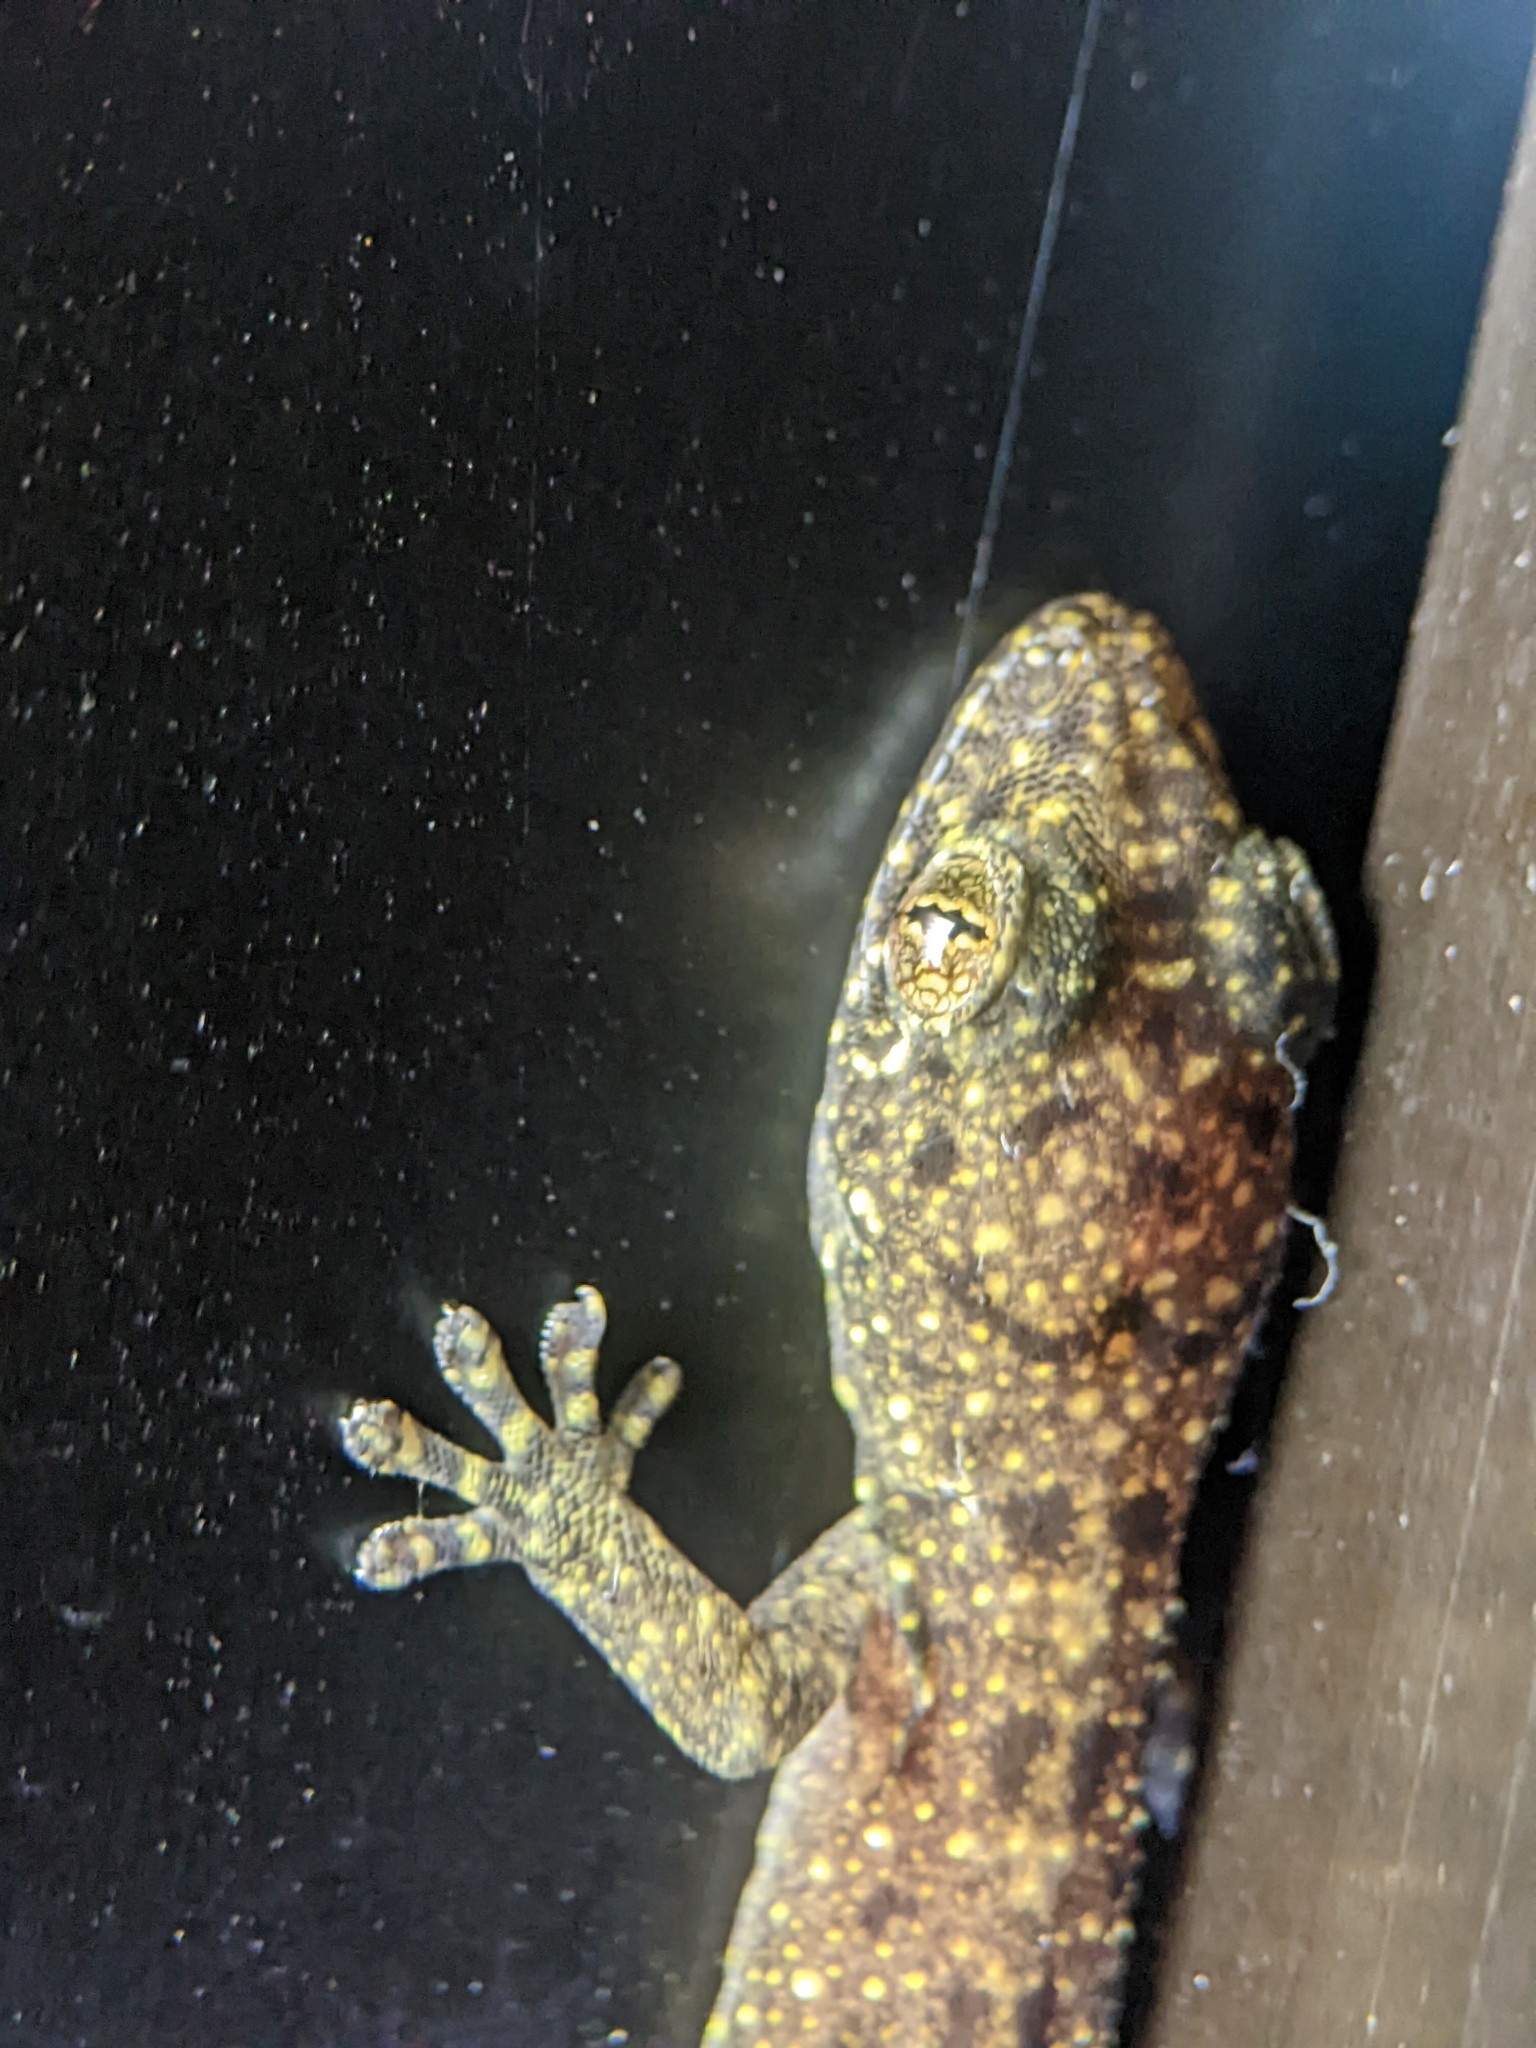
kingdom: Animalia
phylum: Chordata
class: Squamata
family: Gekkonidae
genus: Gekko
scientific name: Gekko monarchus
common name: Spotted house gecko
